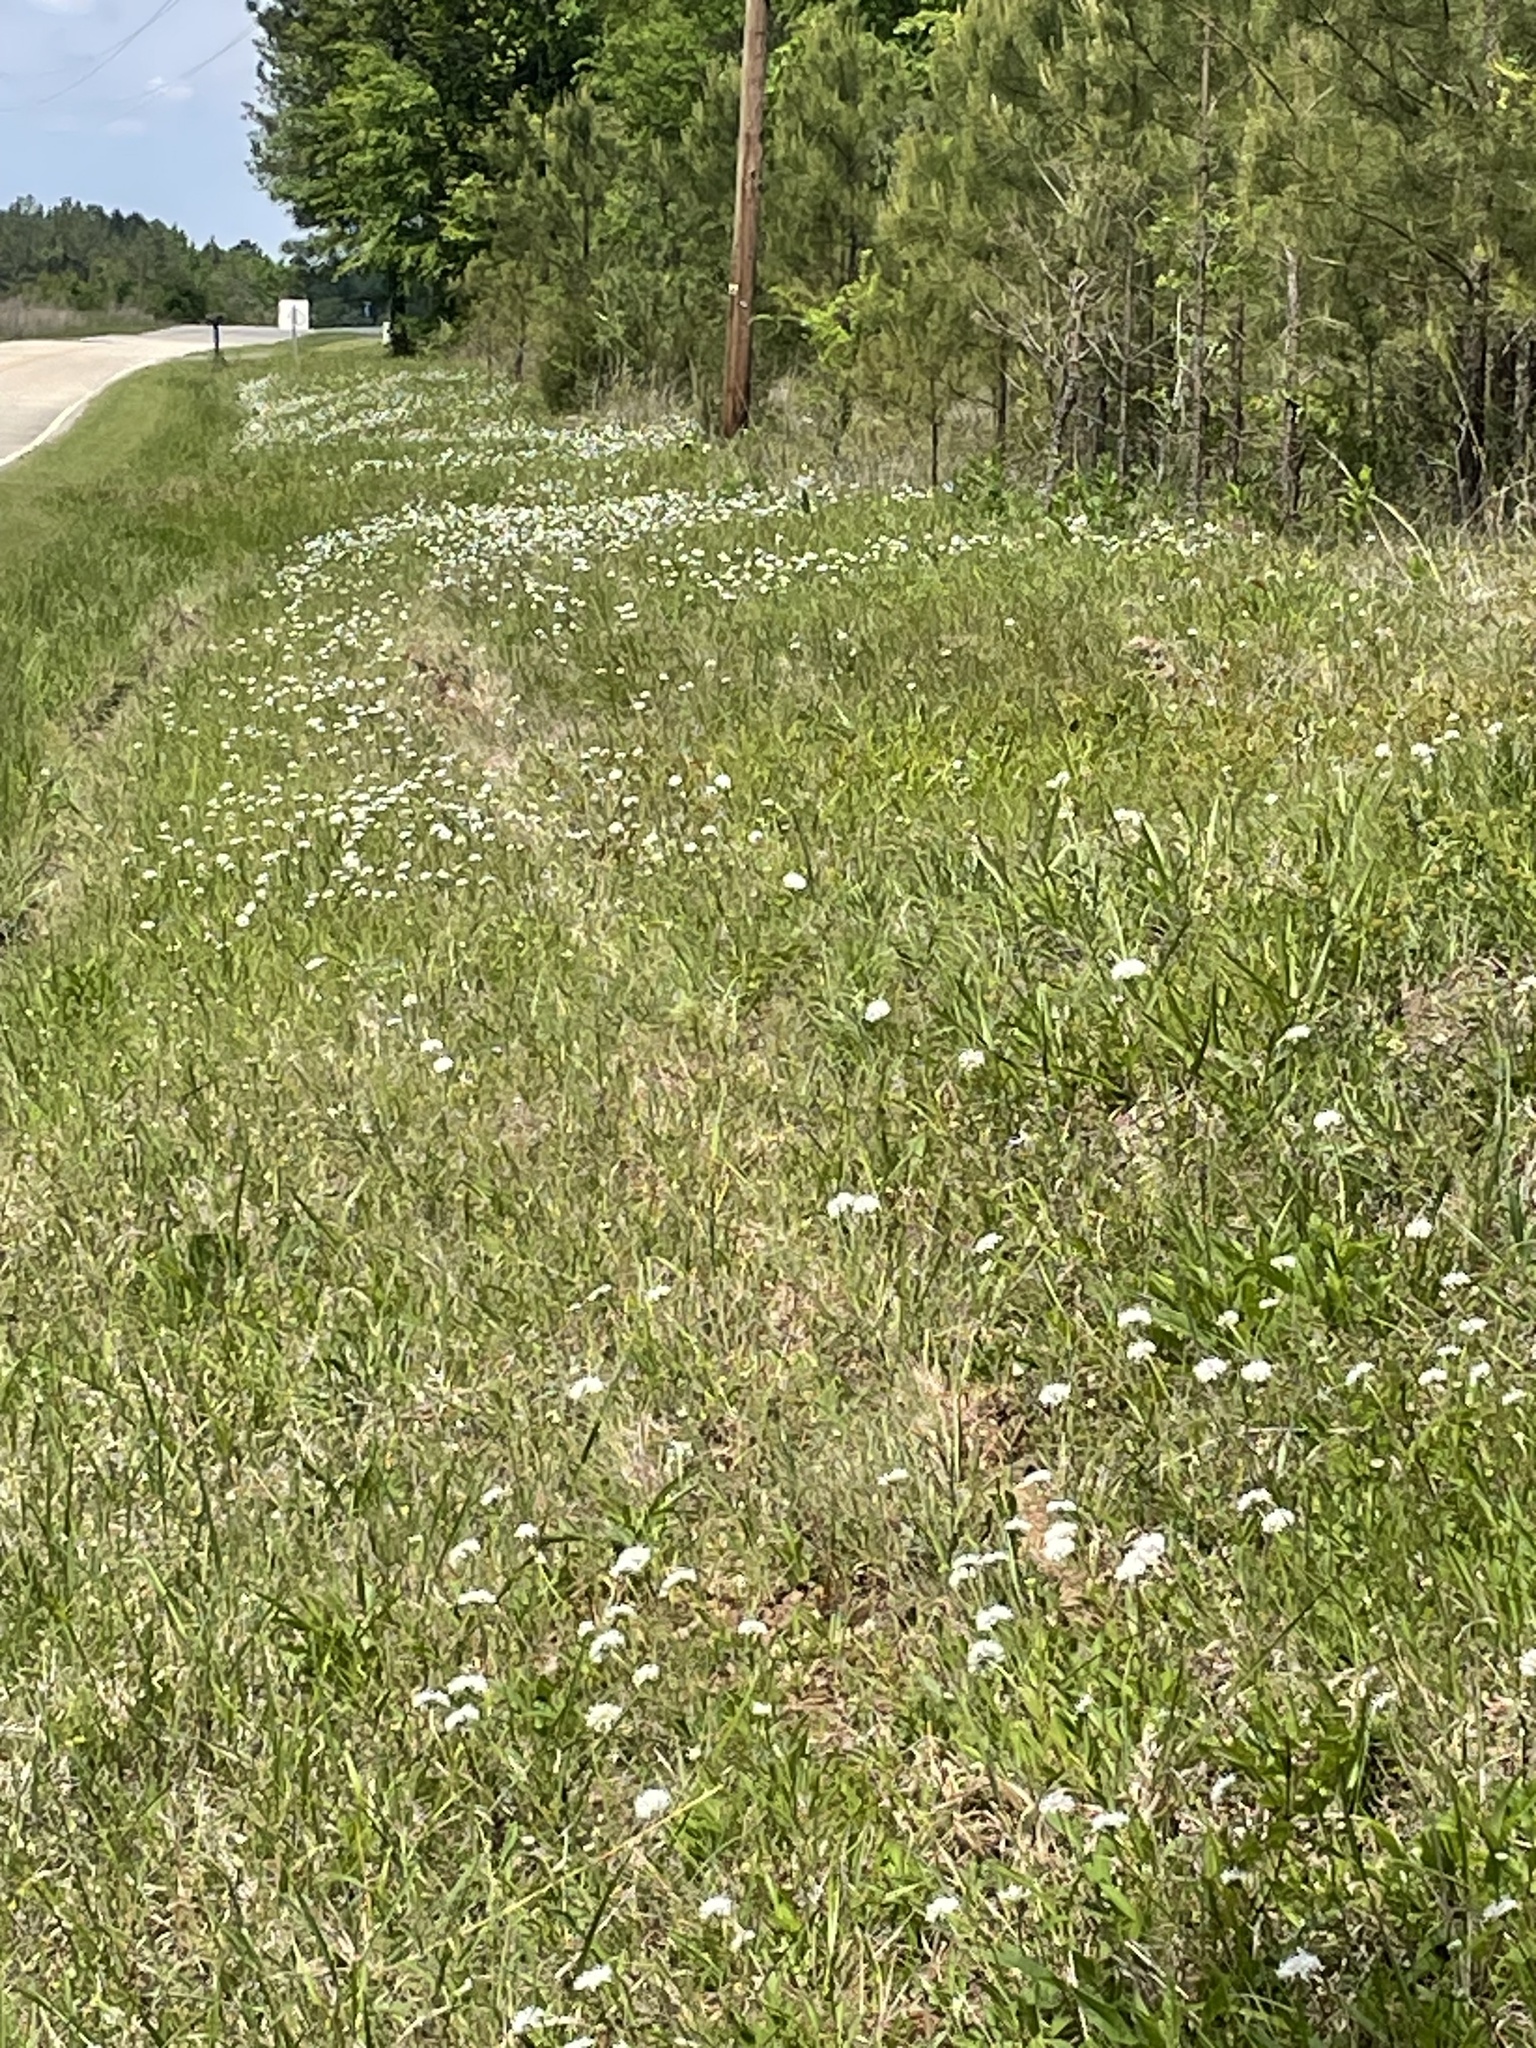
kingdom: Plantae
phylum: Tracheophyta
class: Magnoliopsida
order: Asterales
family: Asteraceae
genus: Marshallia
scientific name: Marshallia obovata
